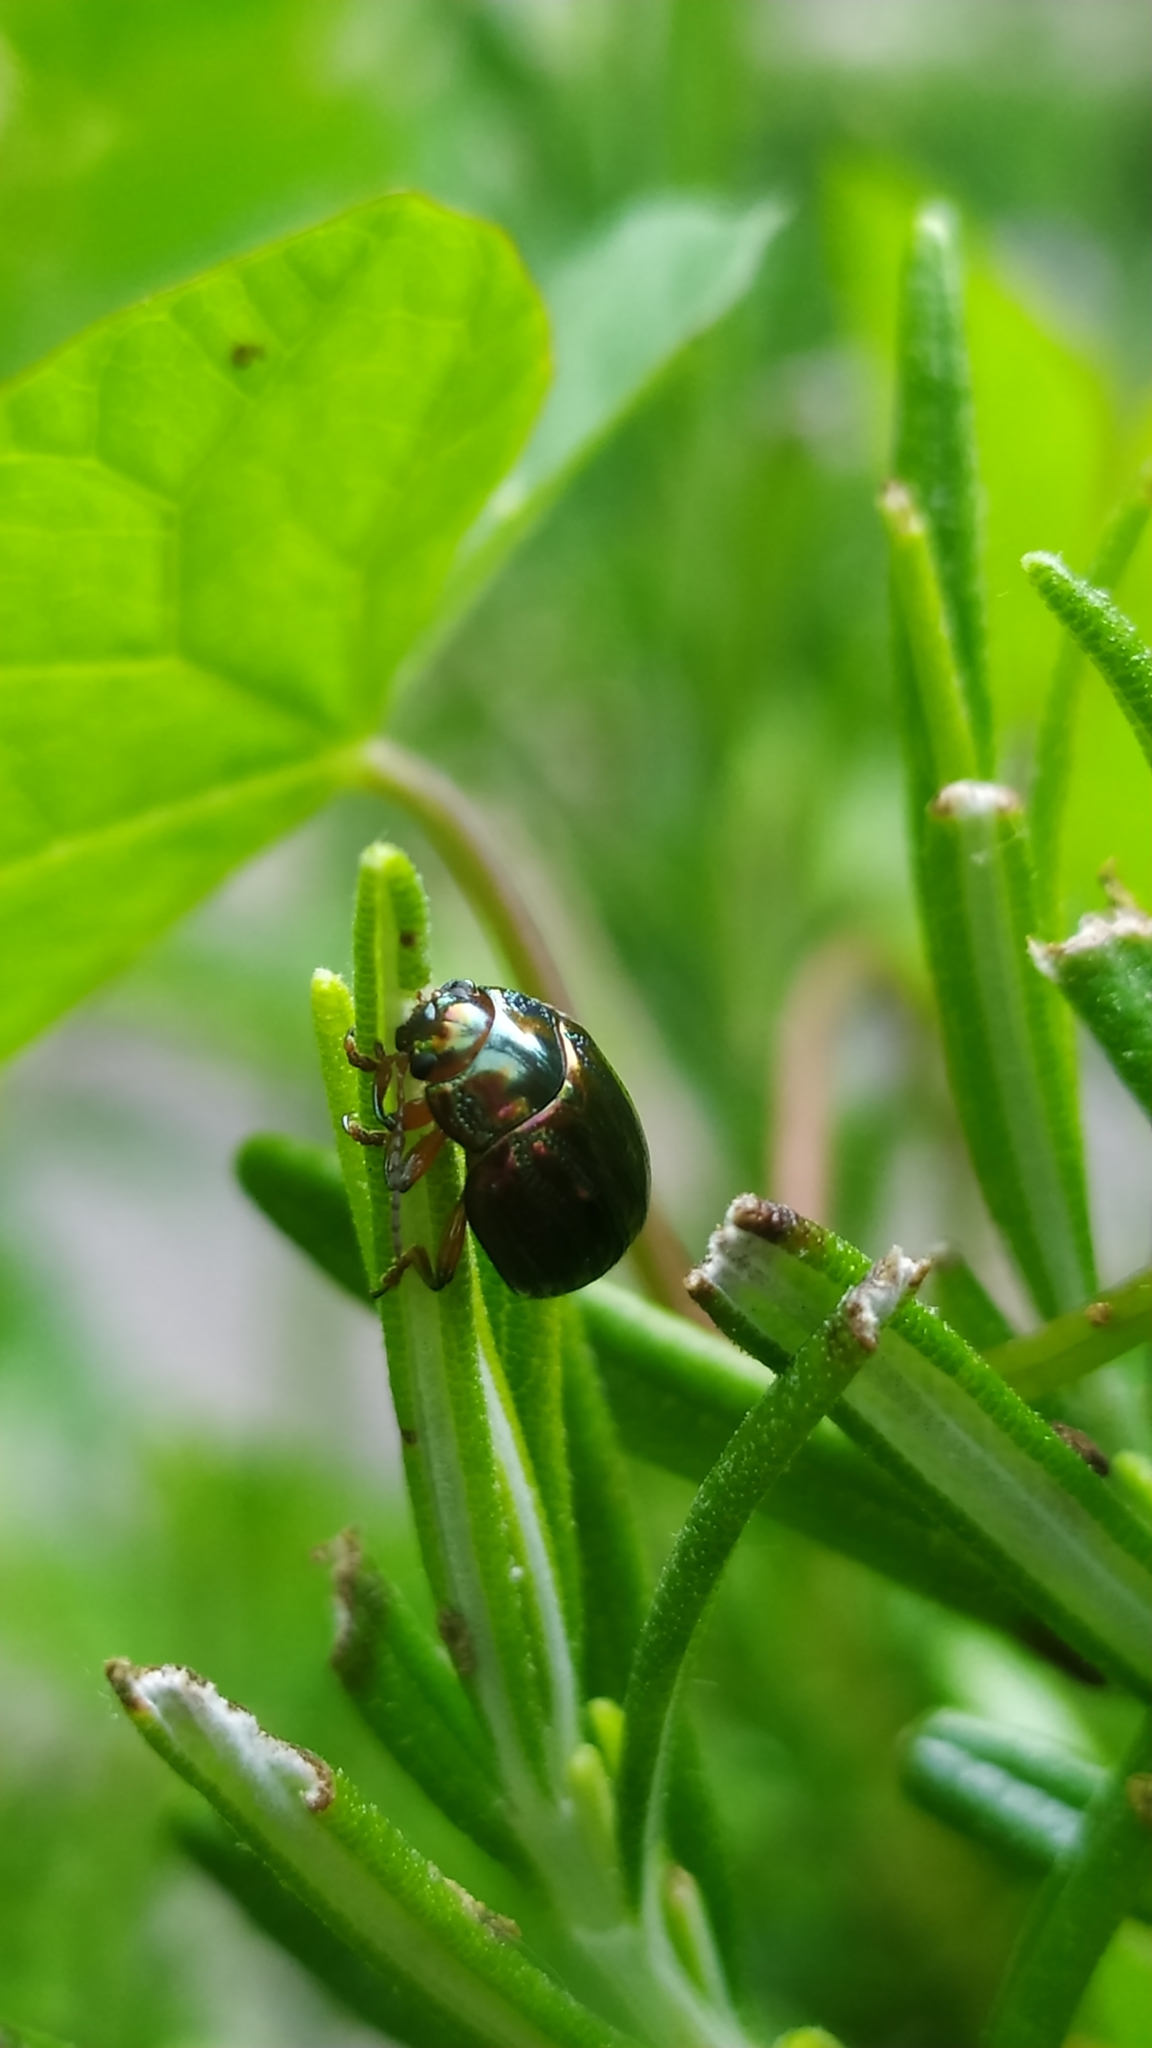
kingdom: Animalia
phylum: Arthropoda
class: Insecta
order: Coleoptera
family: Chrysomelidae
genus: Chrysolina
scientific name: Chrysolina americana
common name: Rosemary beetle
